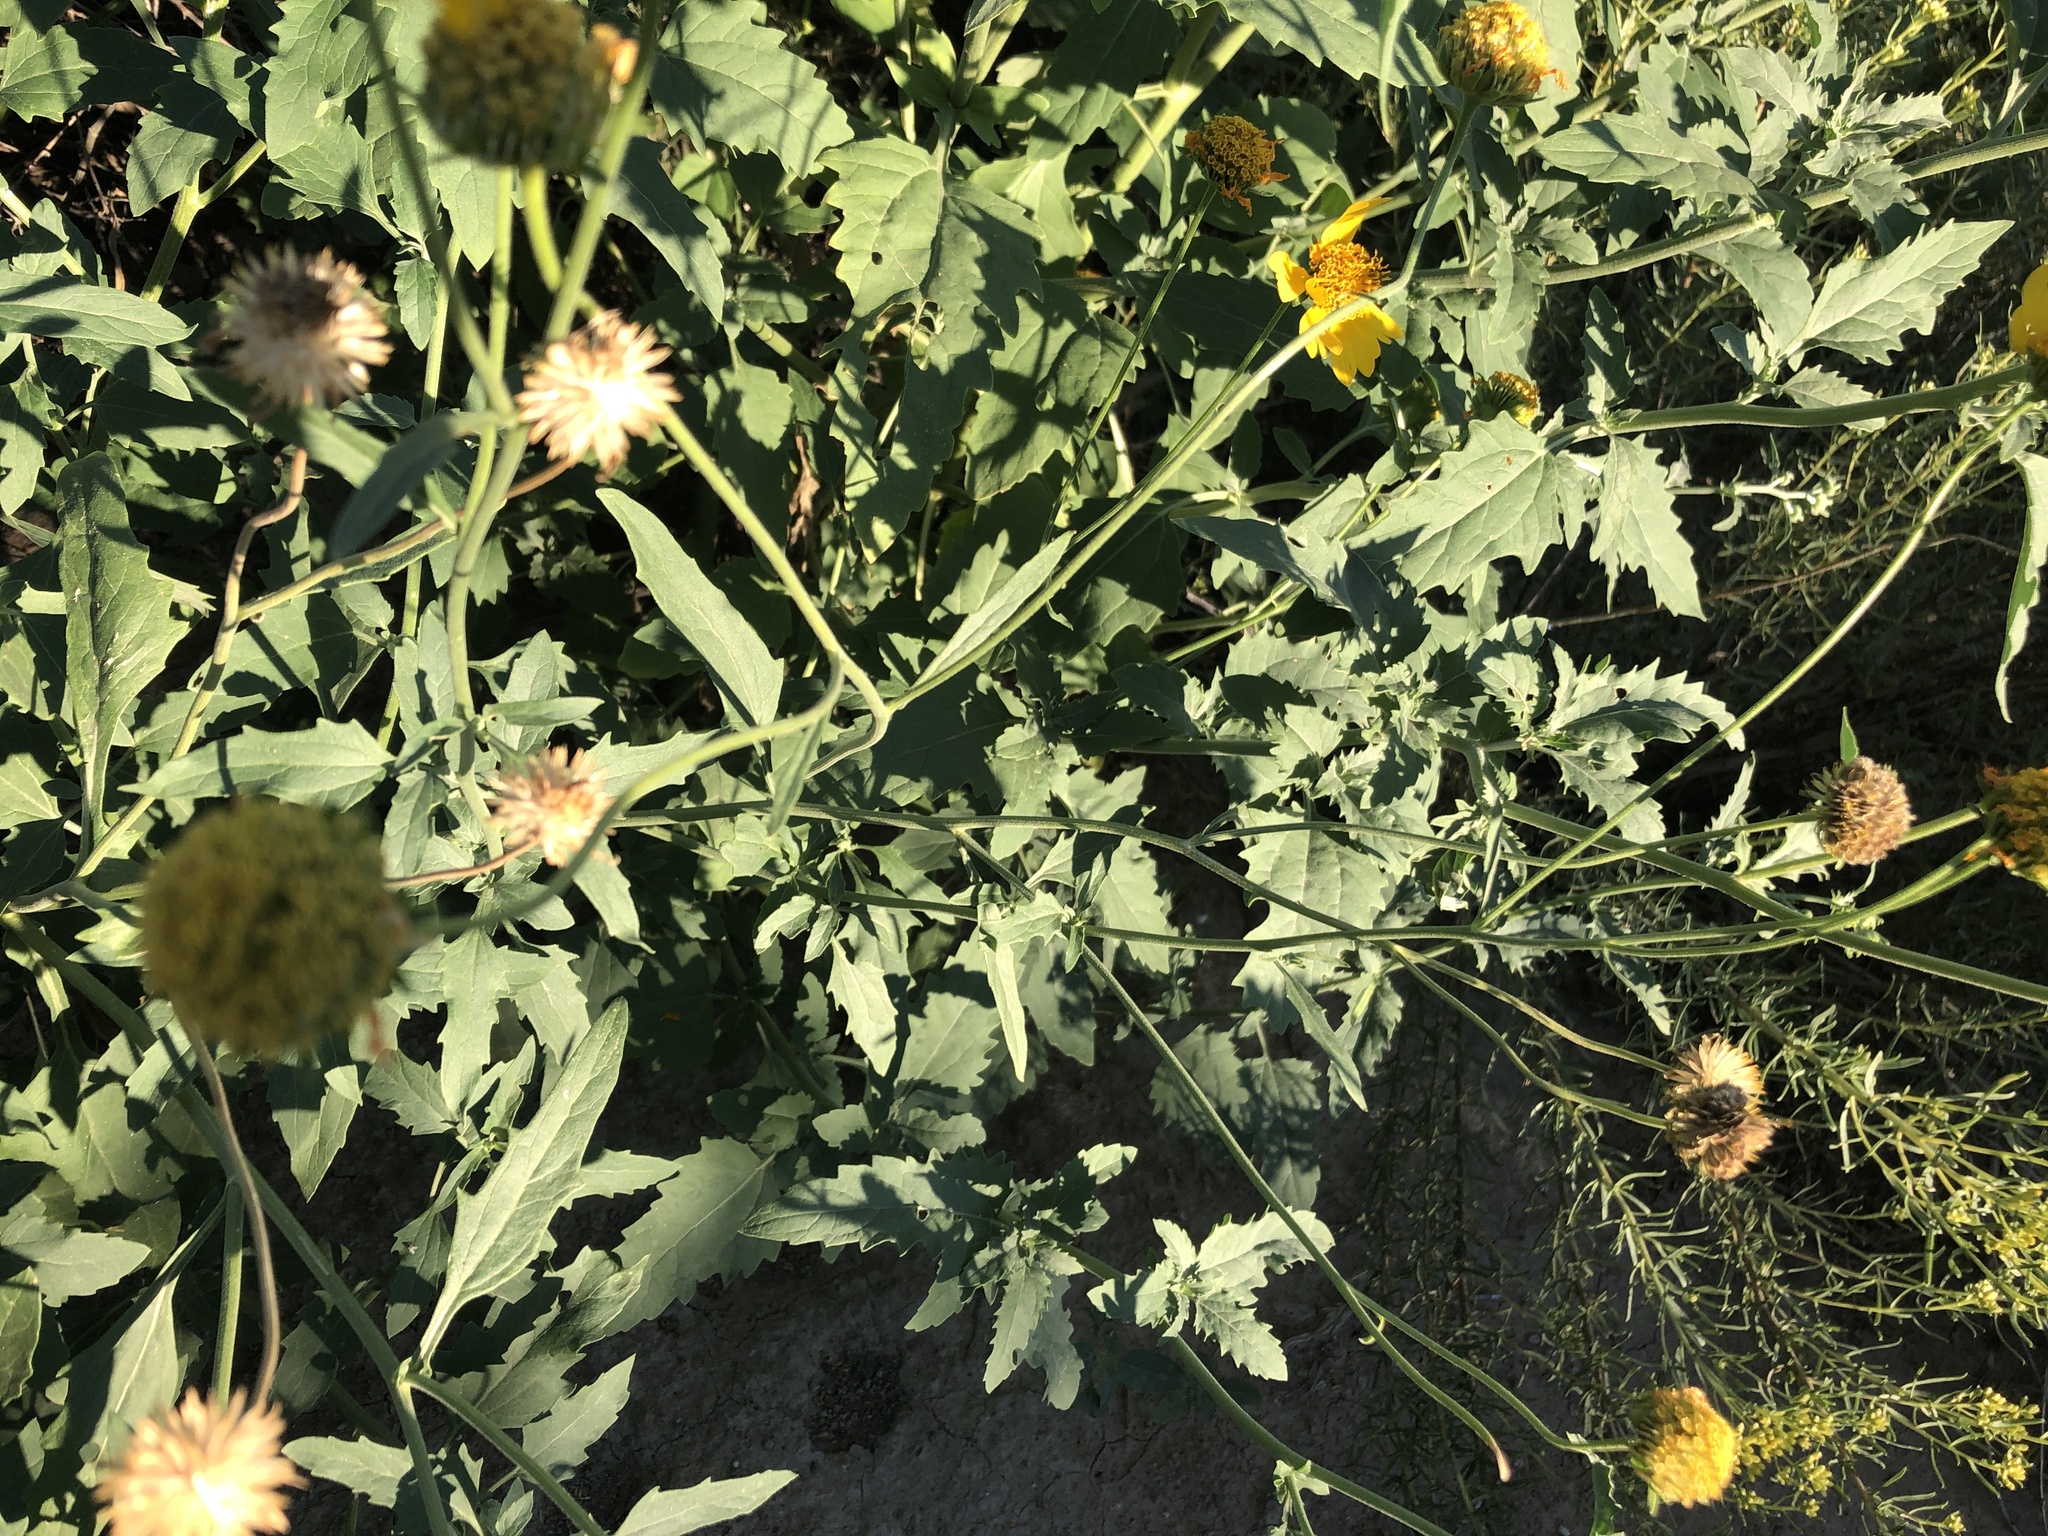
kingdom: Plantae
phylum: Tracheophyta
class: Magnoliopsida
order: Asterales
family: Asteraceae
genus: Verbesina
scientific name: Verbesina encelioides
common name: Golden crownbeard
